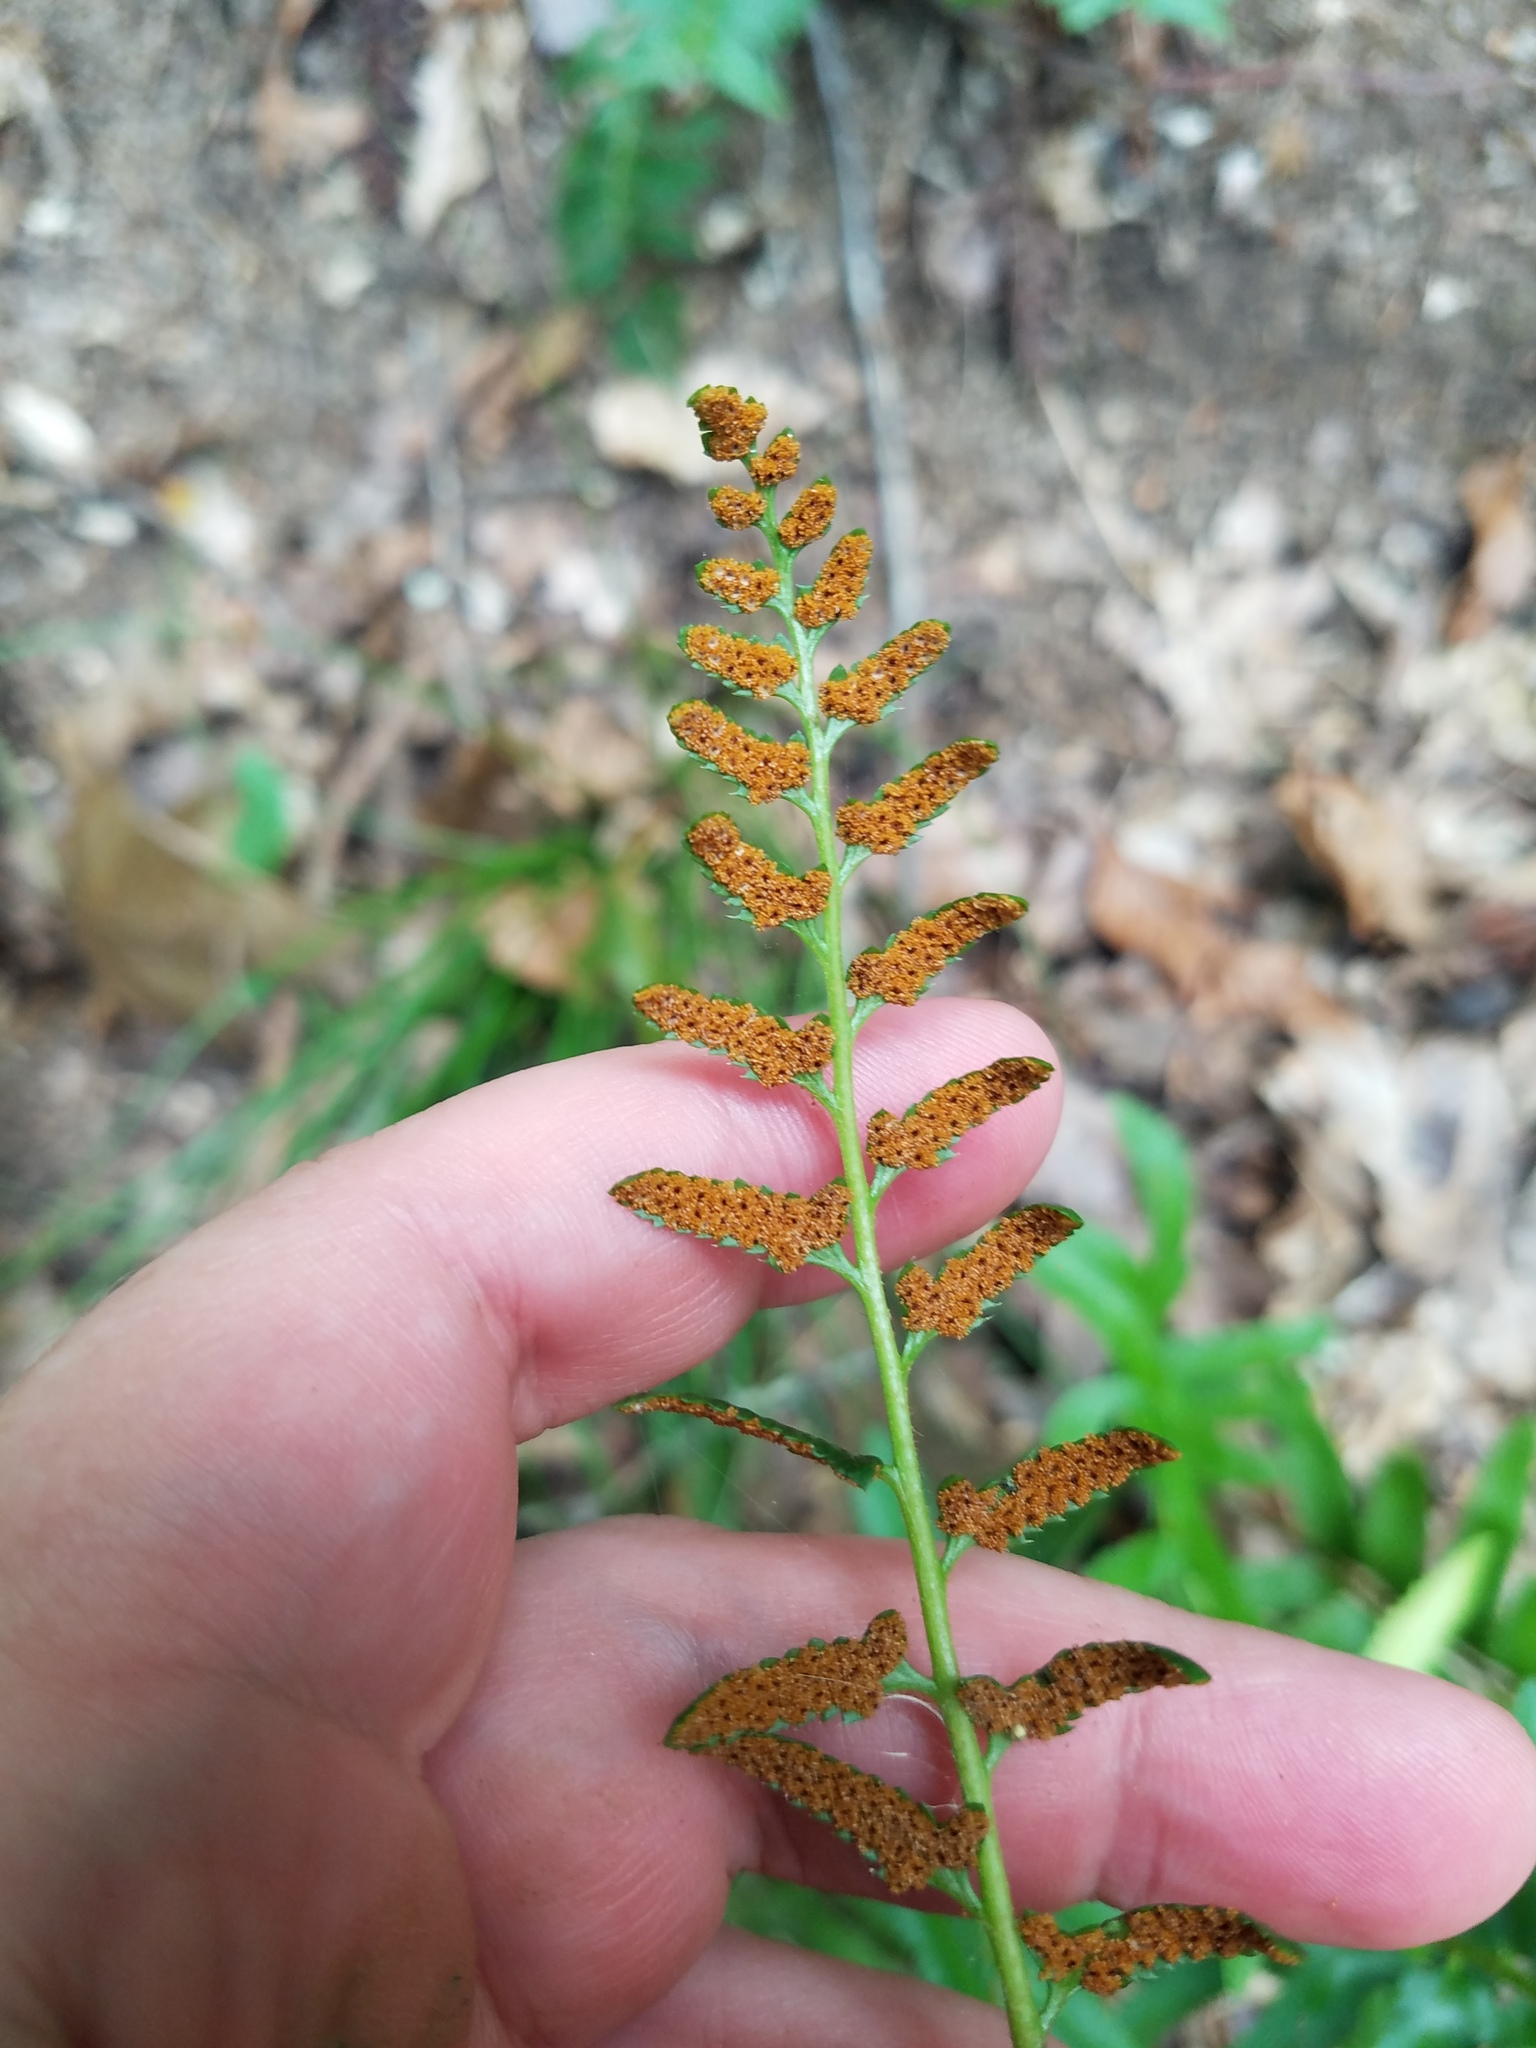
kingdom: Plantae
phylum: Tracheophyta
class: Polypodiopsida
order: Polypodiales
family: Dryopteridaceae
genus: Polystichum
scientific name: Polystichum acrostichoides
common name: Christmas fern
